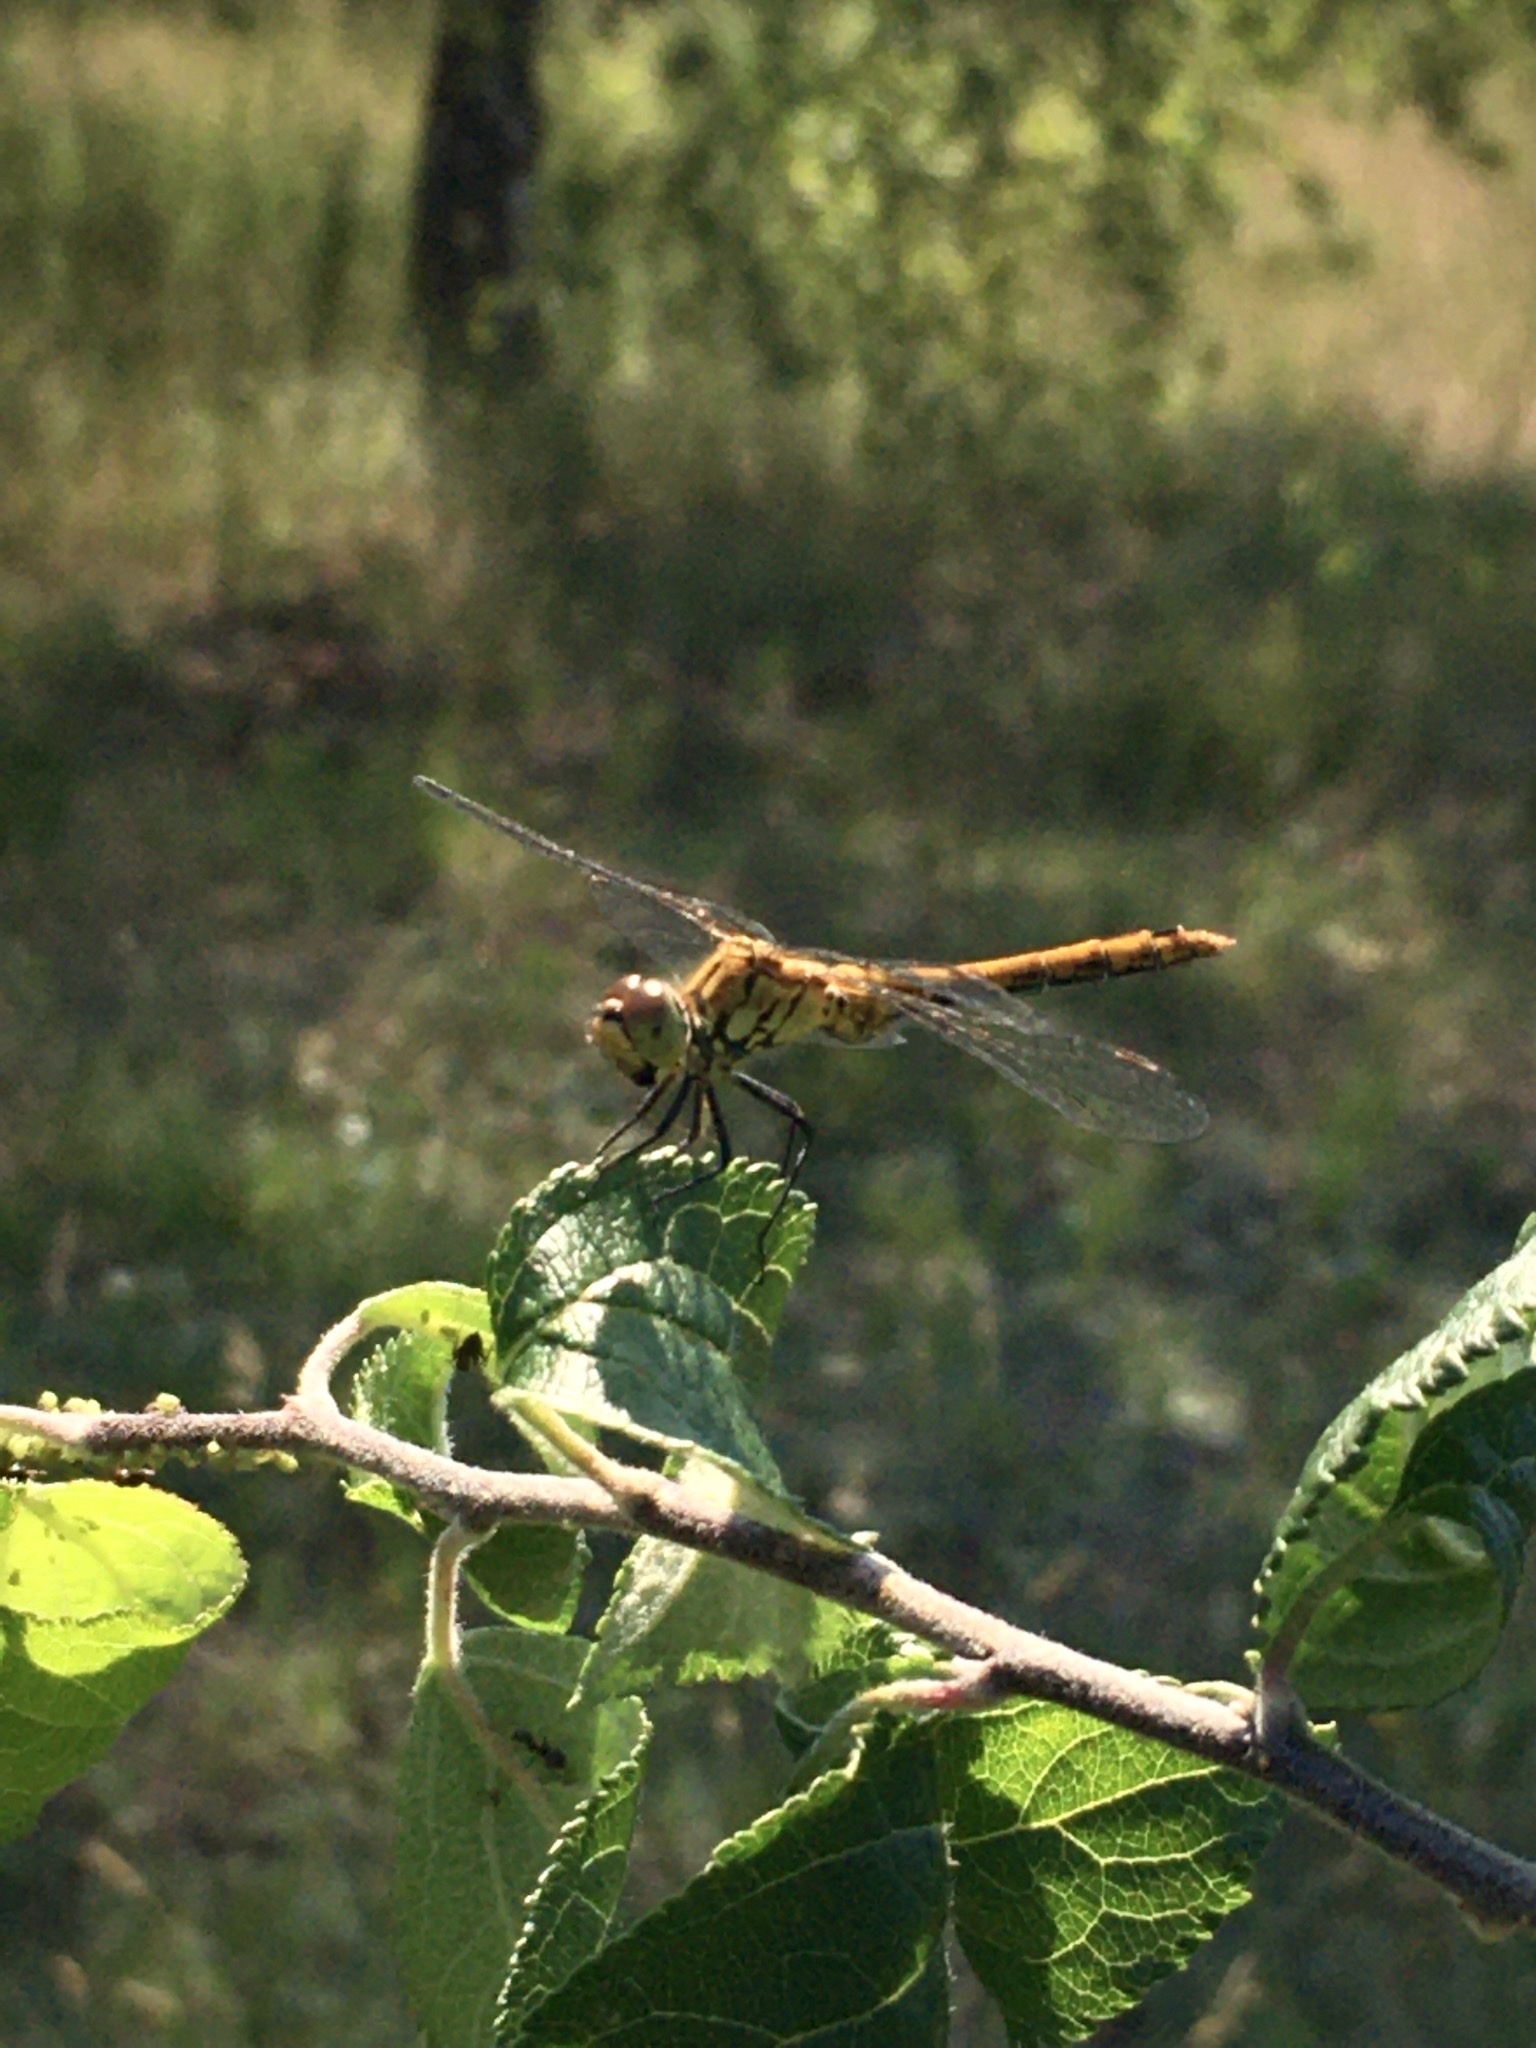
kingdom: Animalia
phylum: Arthropoda
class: Insecta
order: Odonata
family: Libellulidae
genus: Sympetrum
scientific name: Sympetrum sanguineum
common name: Ruddy darter
